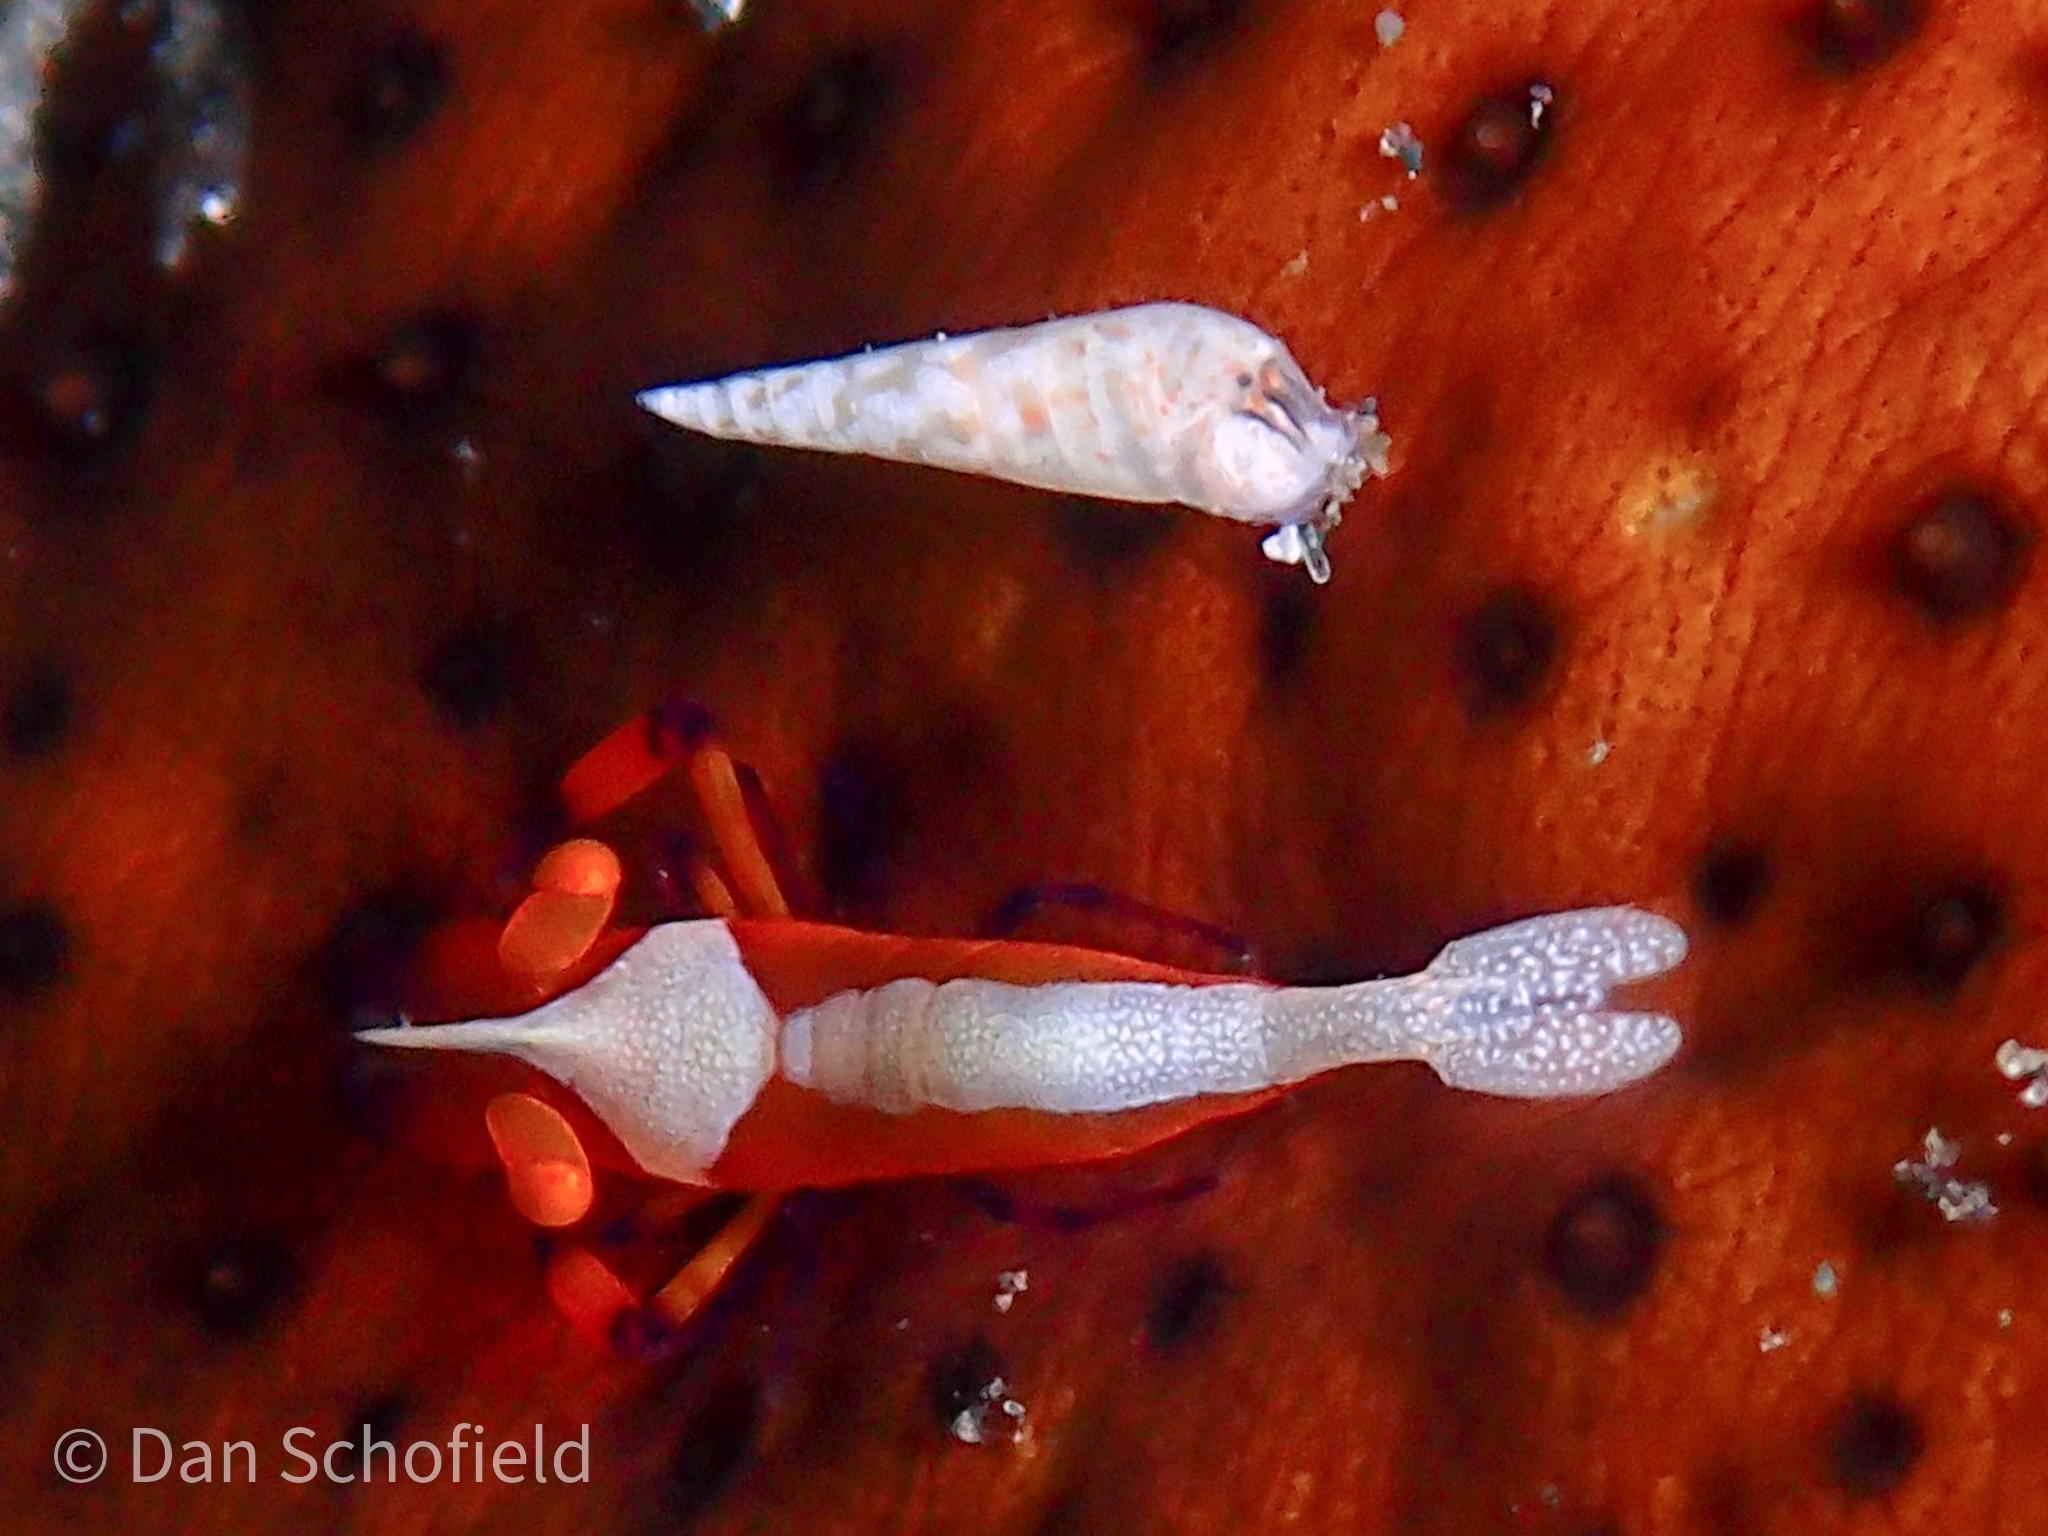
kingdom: Animalia
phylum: Arthropoda
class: Malacostraca
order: Decapoda
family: Palaemonidae
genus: Periclimenes
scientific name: Periclimenes rex
